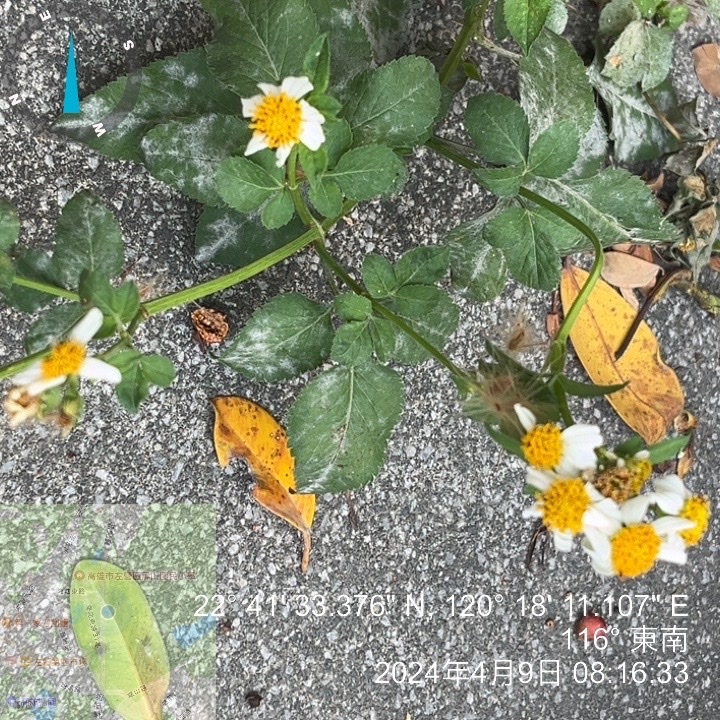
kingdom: Plantae
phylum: Tracheophyta
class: Magnoliopsida
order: Asterales
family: Asteraceae
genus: Bidens
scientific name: Bidens alba
